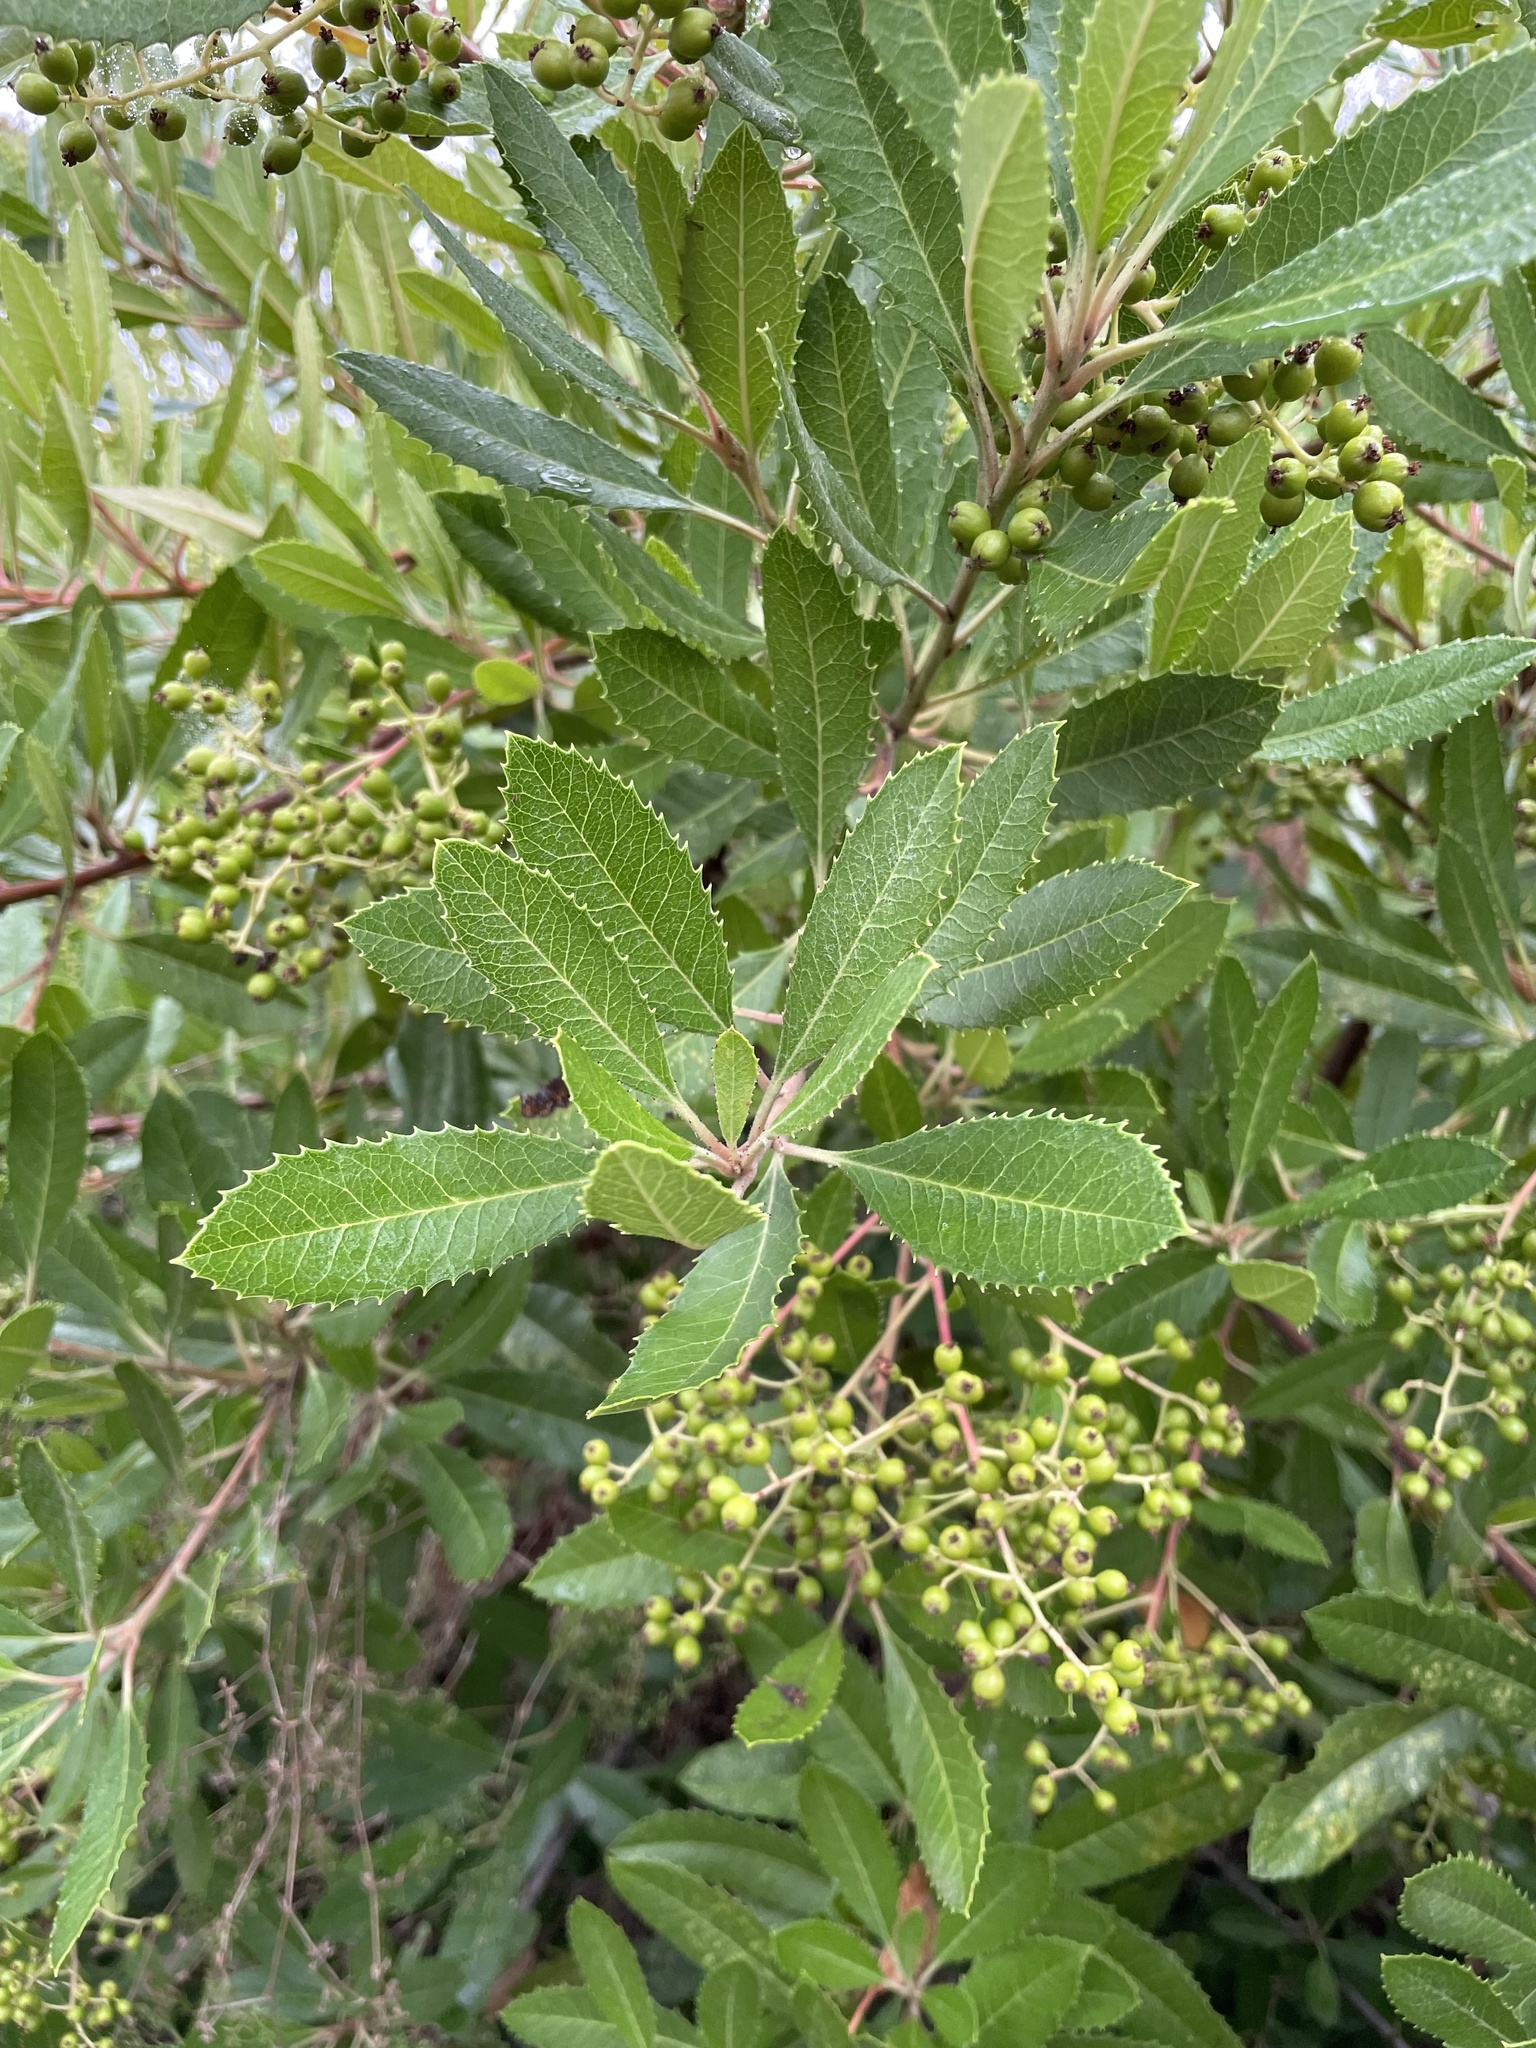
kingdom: Plantae
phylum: Tracheophyta
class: Magnoliopsida
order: Rosales
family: Rosaceae
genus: Heteromeles
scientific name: Heteromeles arbutifolia
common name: California-holly
